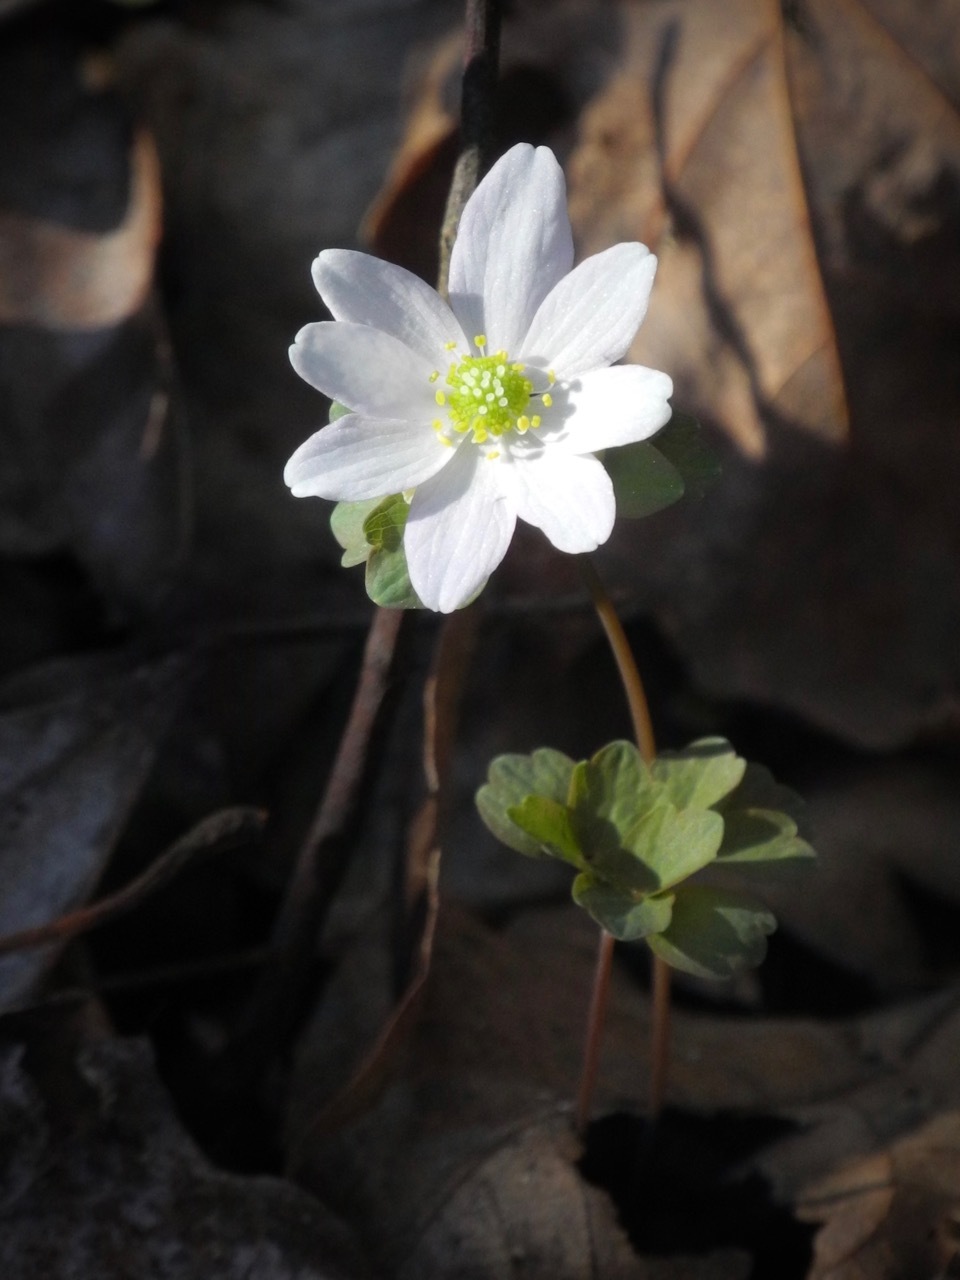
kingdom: Plantae
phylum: Tracheophyta
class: Magnoliopsida
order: Ranunculales
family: Ranunculaceae
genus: Thalictrum
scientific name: Thalictrum thalictroides
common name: Rue-anemone
